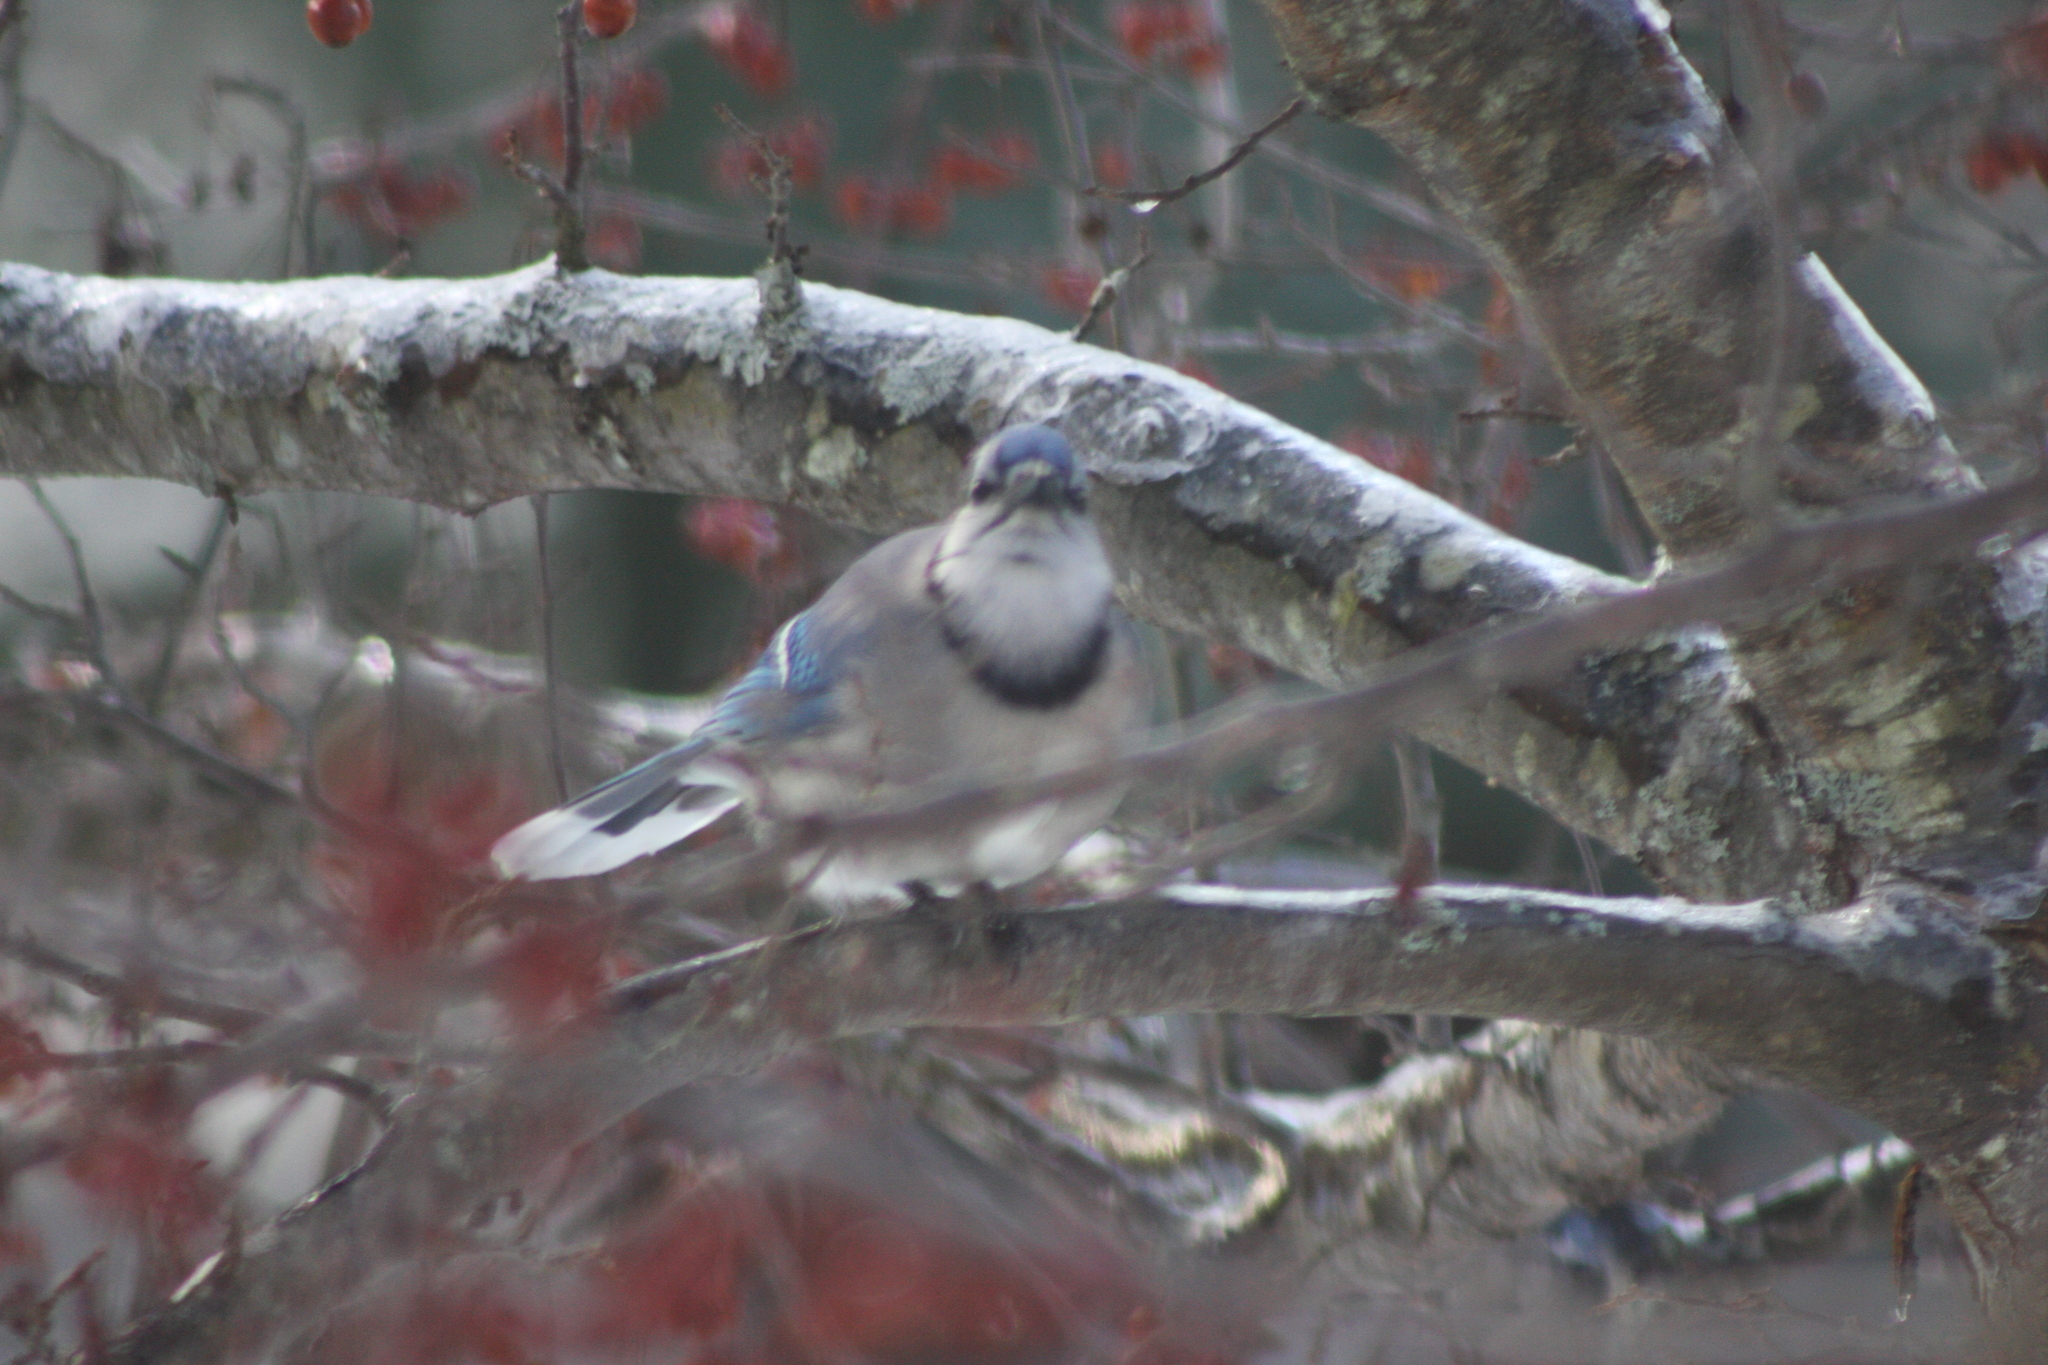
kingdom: Animalia
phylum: Chordata
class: Aves
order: Passeriformes
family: Corvidae
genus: Cyanocitta
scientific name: Cyanocitta cristata
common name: Blue jay
